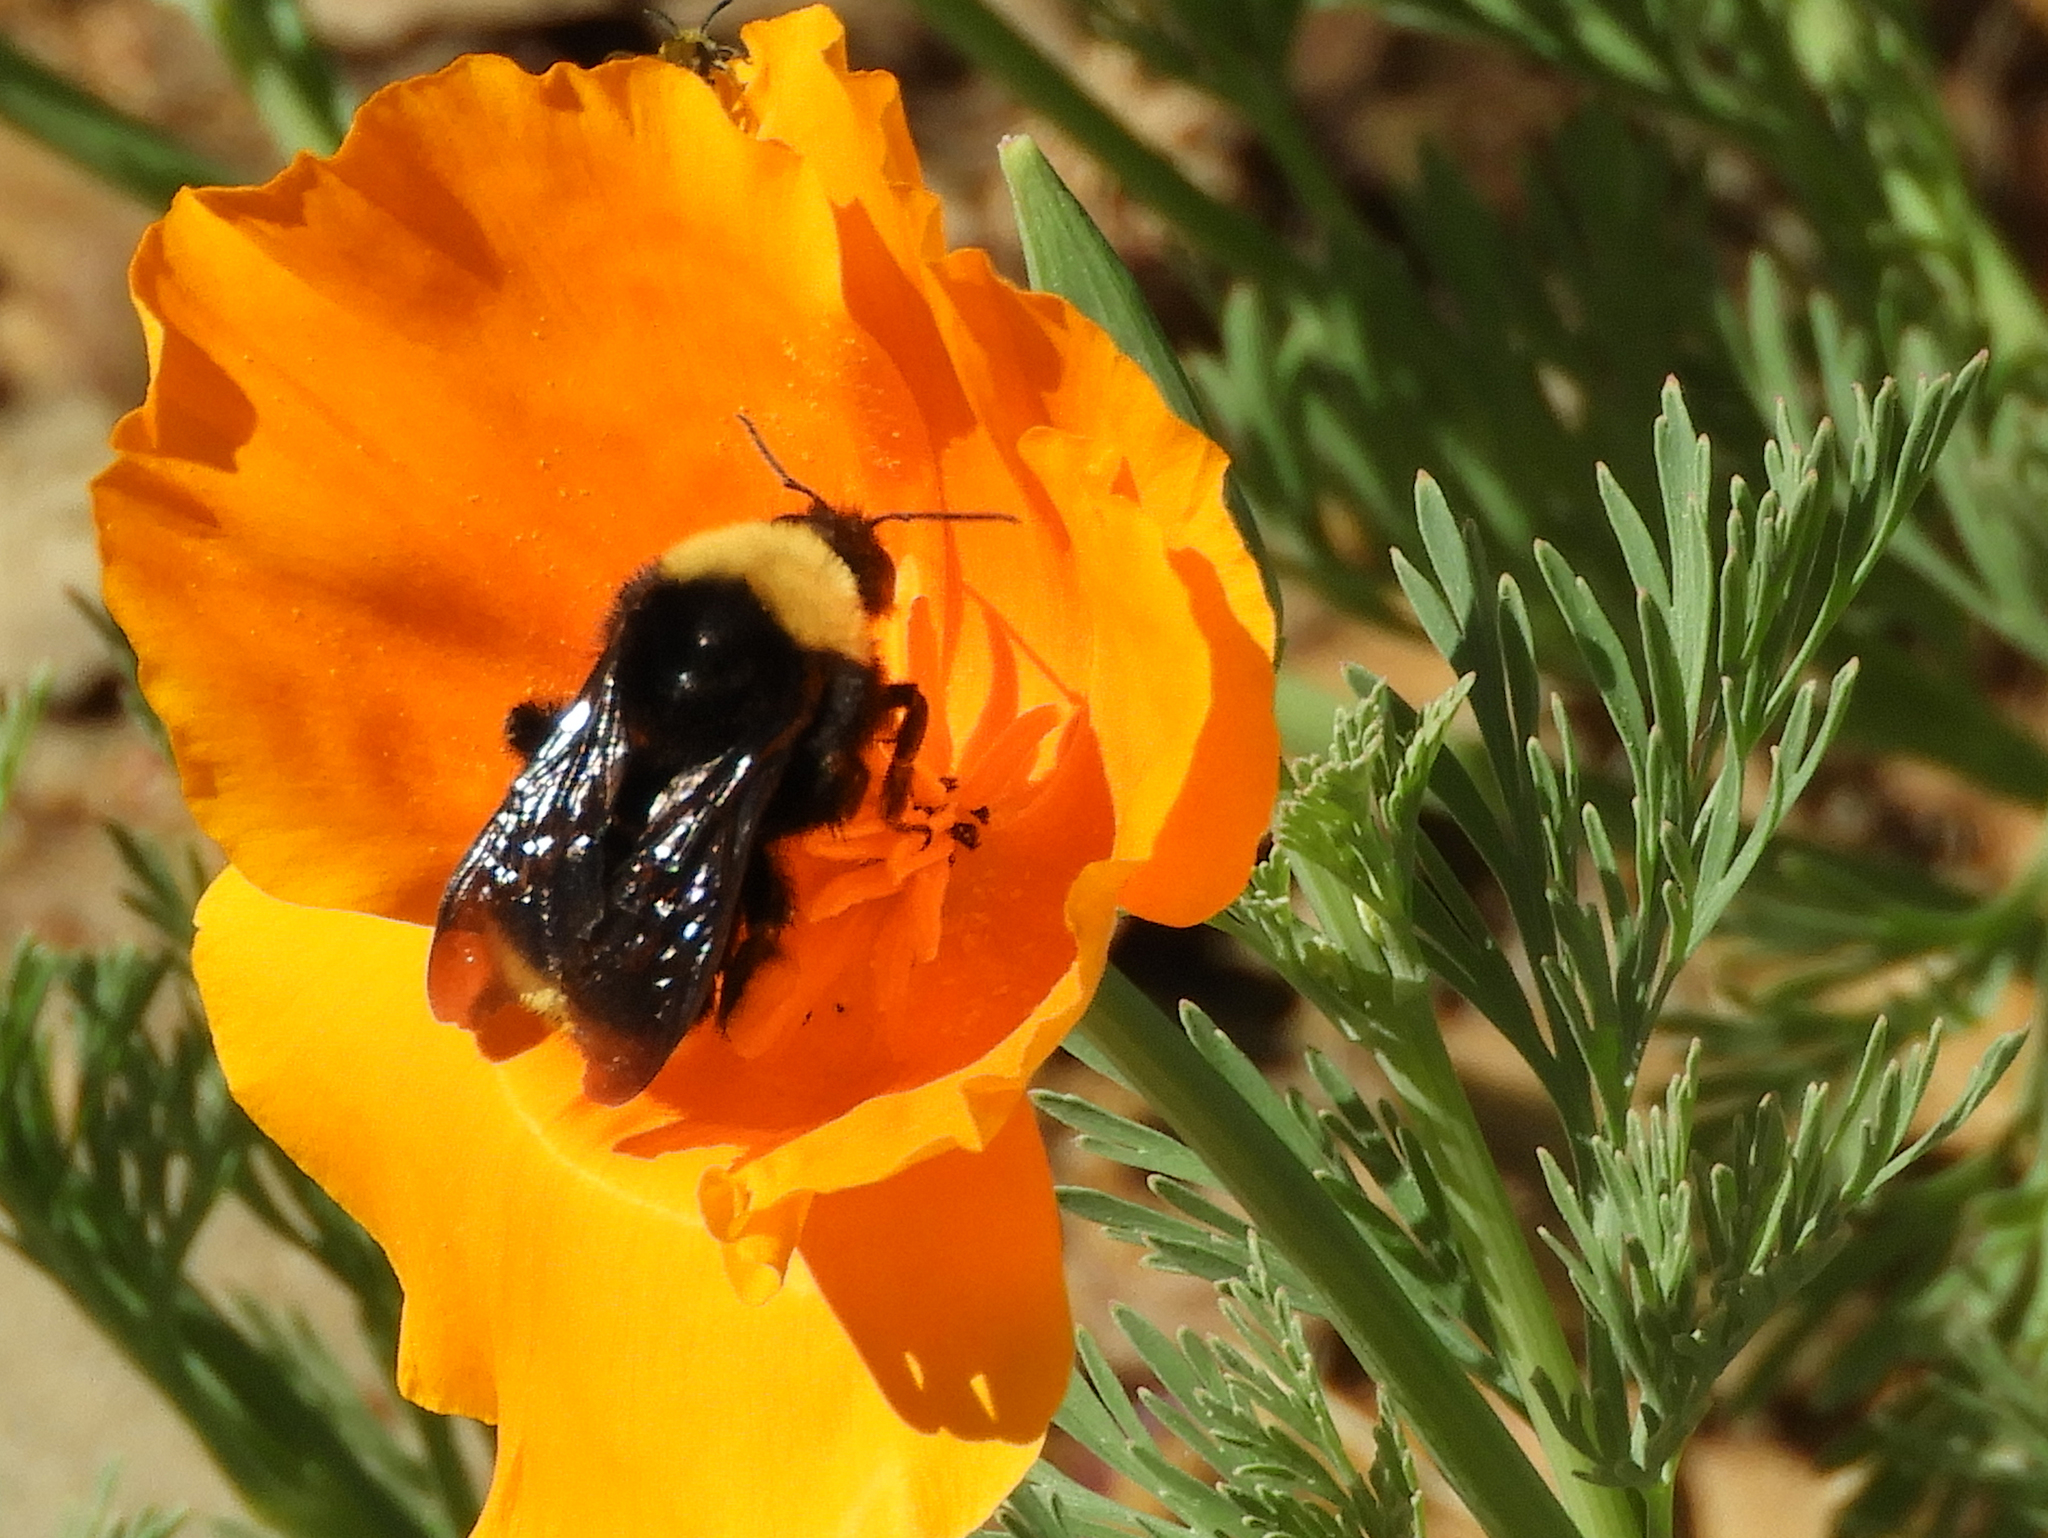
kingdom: Animalia
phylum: Arthropoda
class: Insecta
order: Hymenoptera
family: Apidae
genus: Bombus
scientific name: Bombus californicus
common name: California bumble bee
